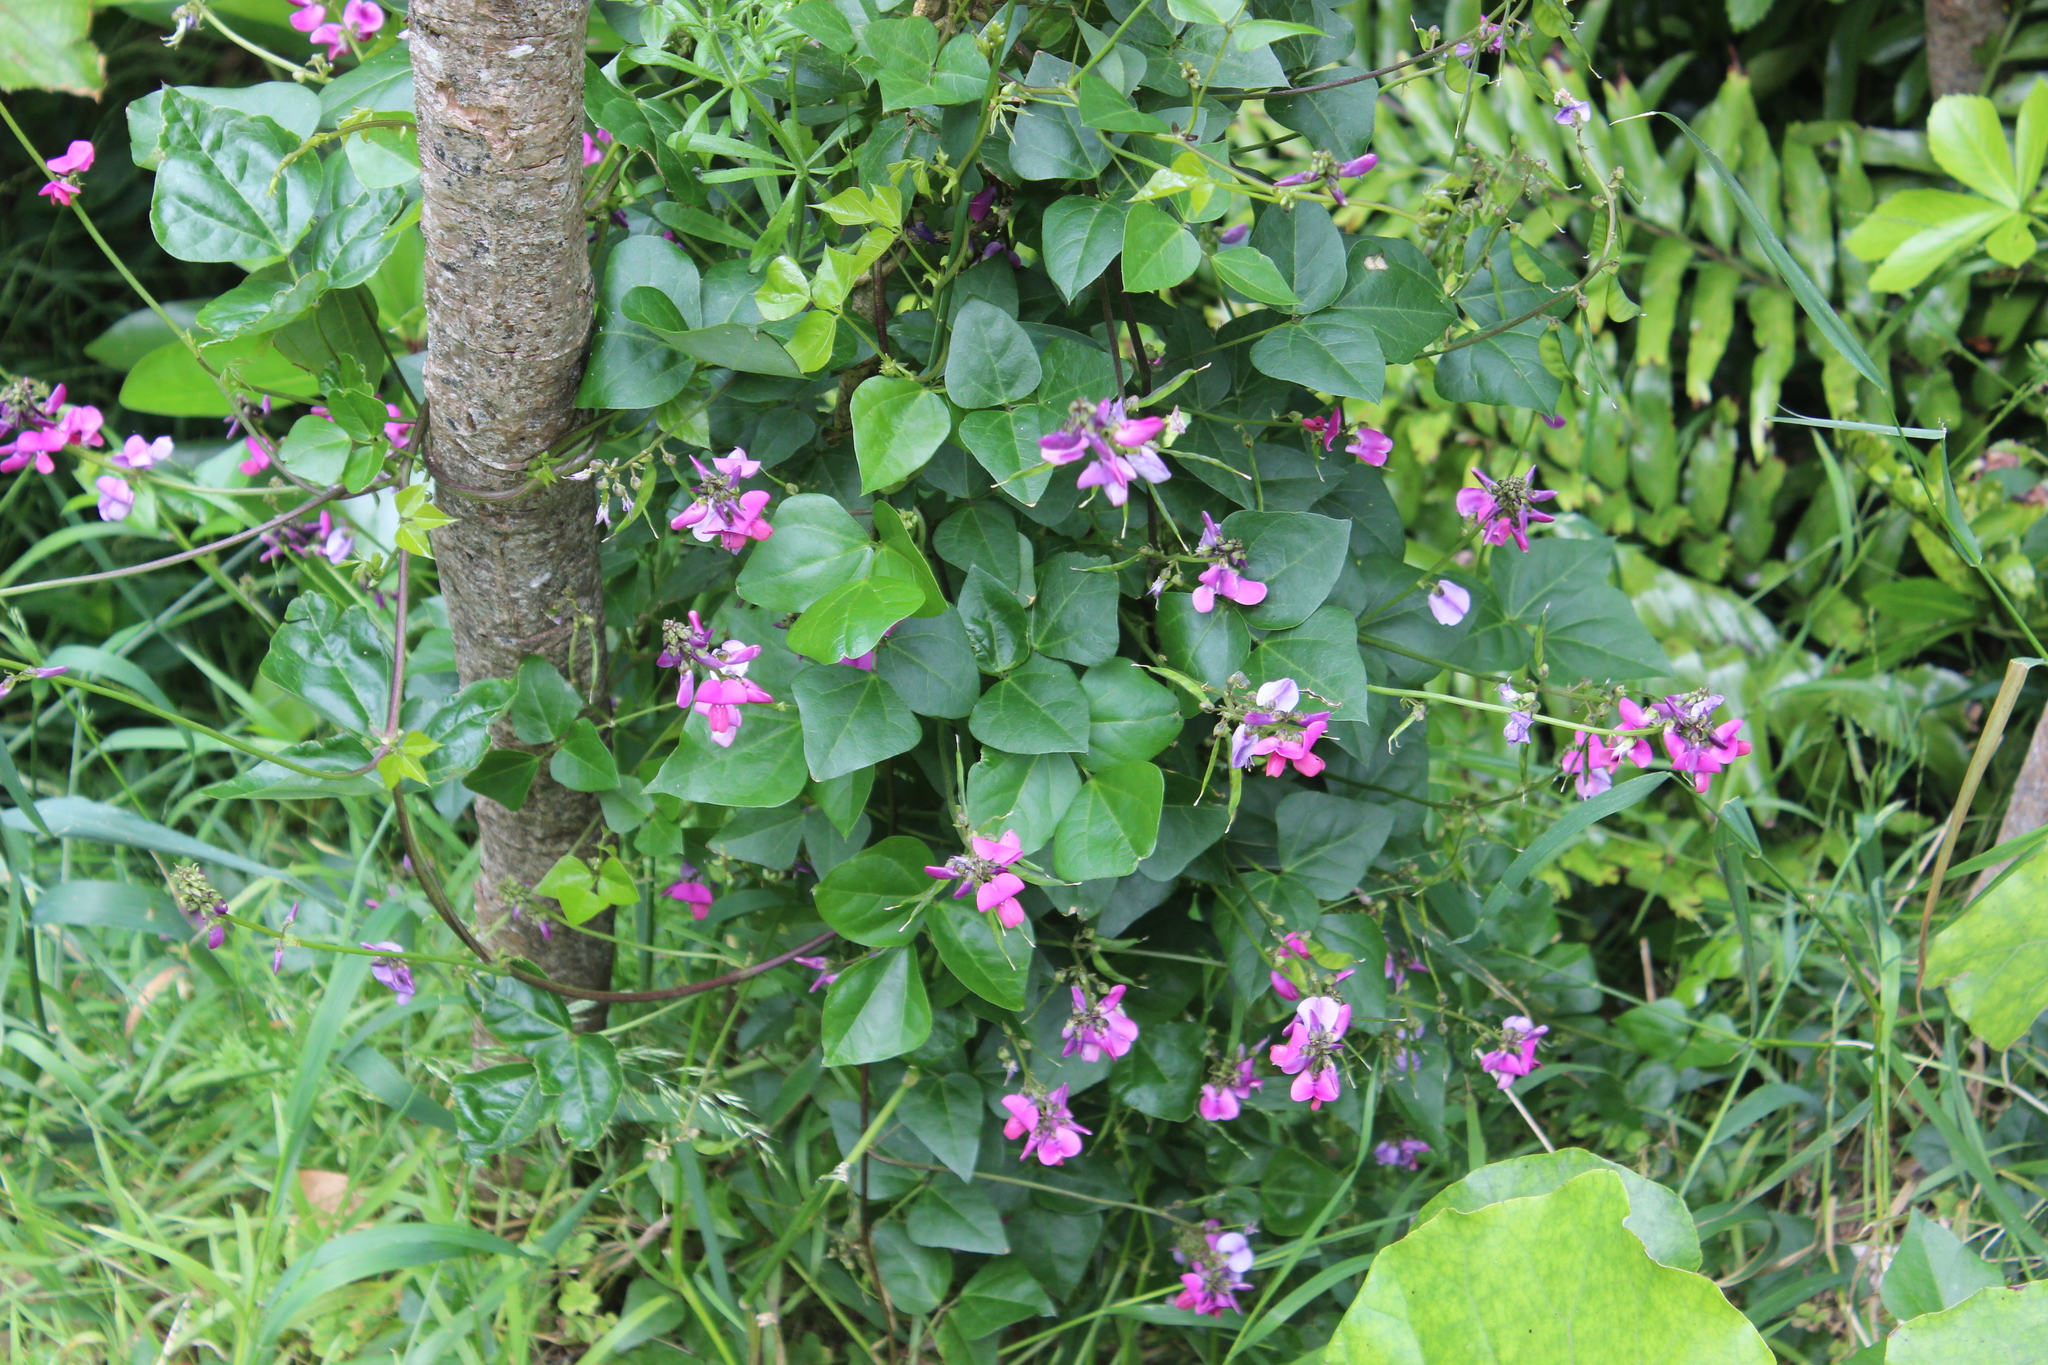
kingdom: Plantae
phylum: Tracheophyta
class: Magnoliopsida
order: Fabales
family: Fabaceae
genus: Dipogon
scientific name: Dipogon lignosus
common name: Okie bean
